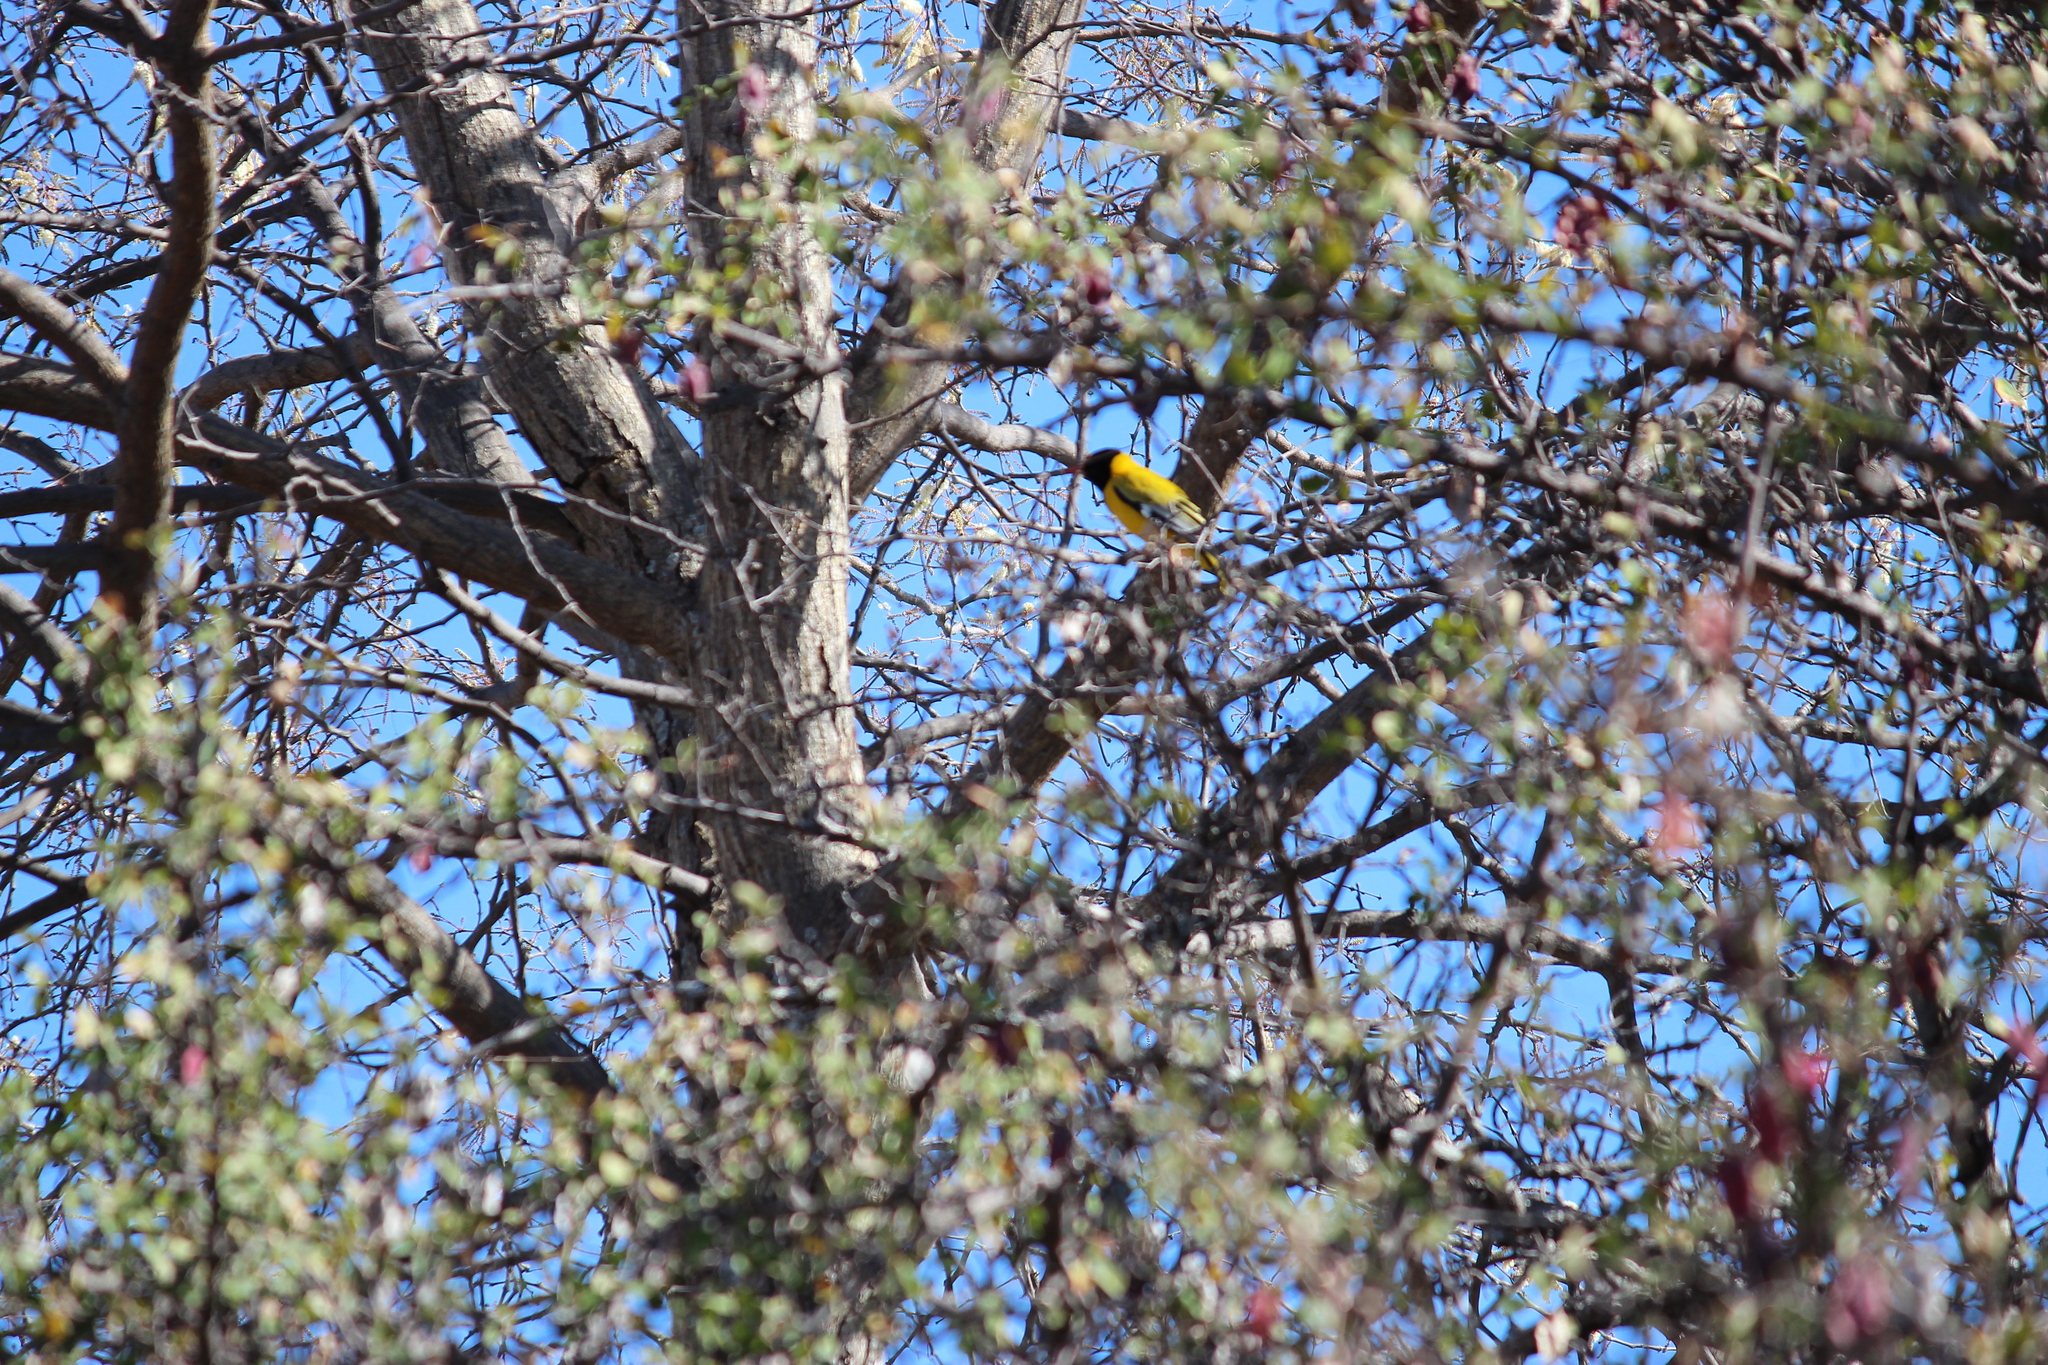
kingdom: Animalia
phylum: Chordata
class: Aves
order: Passeriformes
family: Oriolidae
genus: Oriolus
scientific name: Oriolus larvatus
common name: Black-headed oriole
